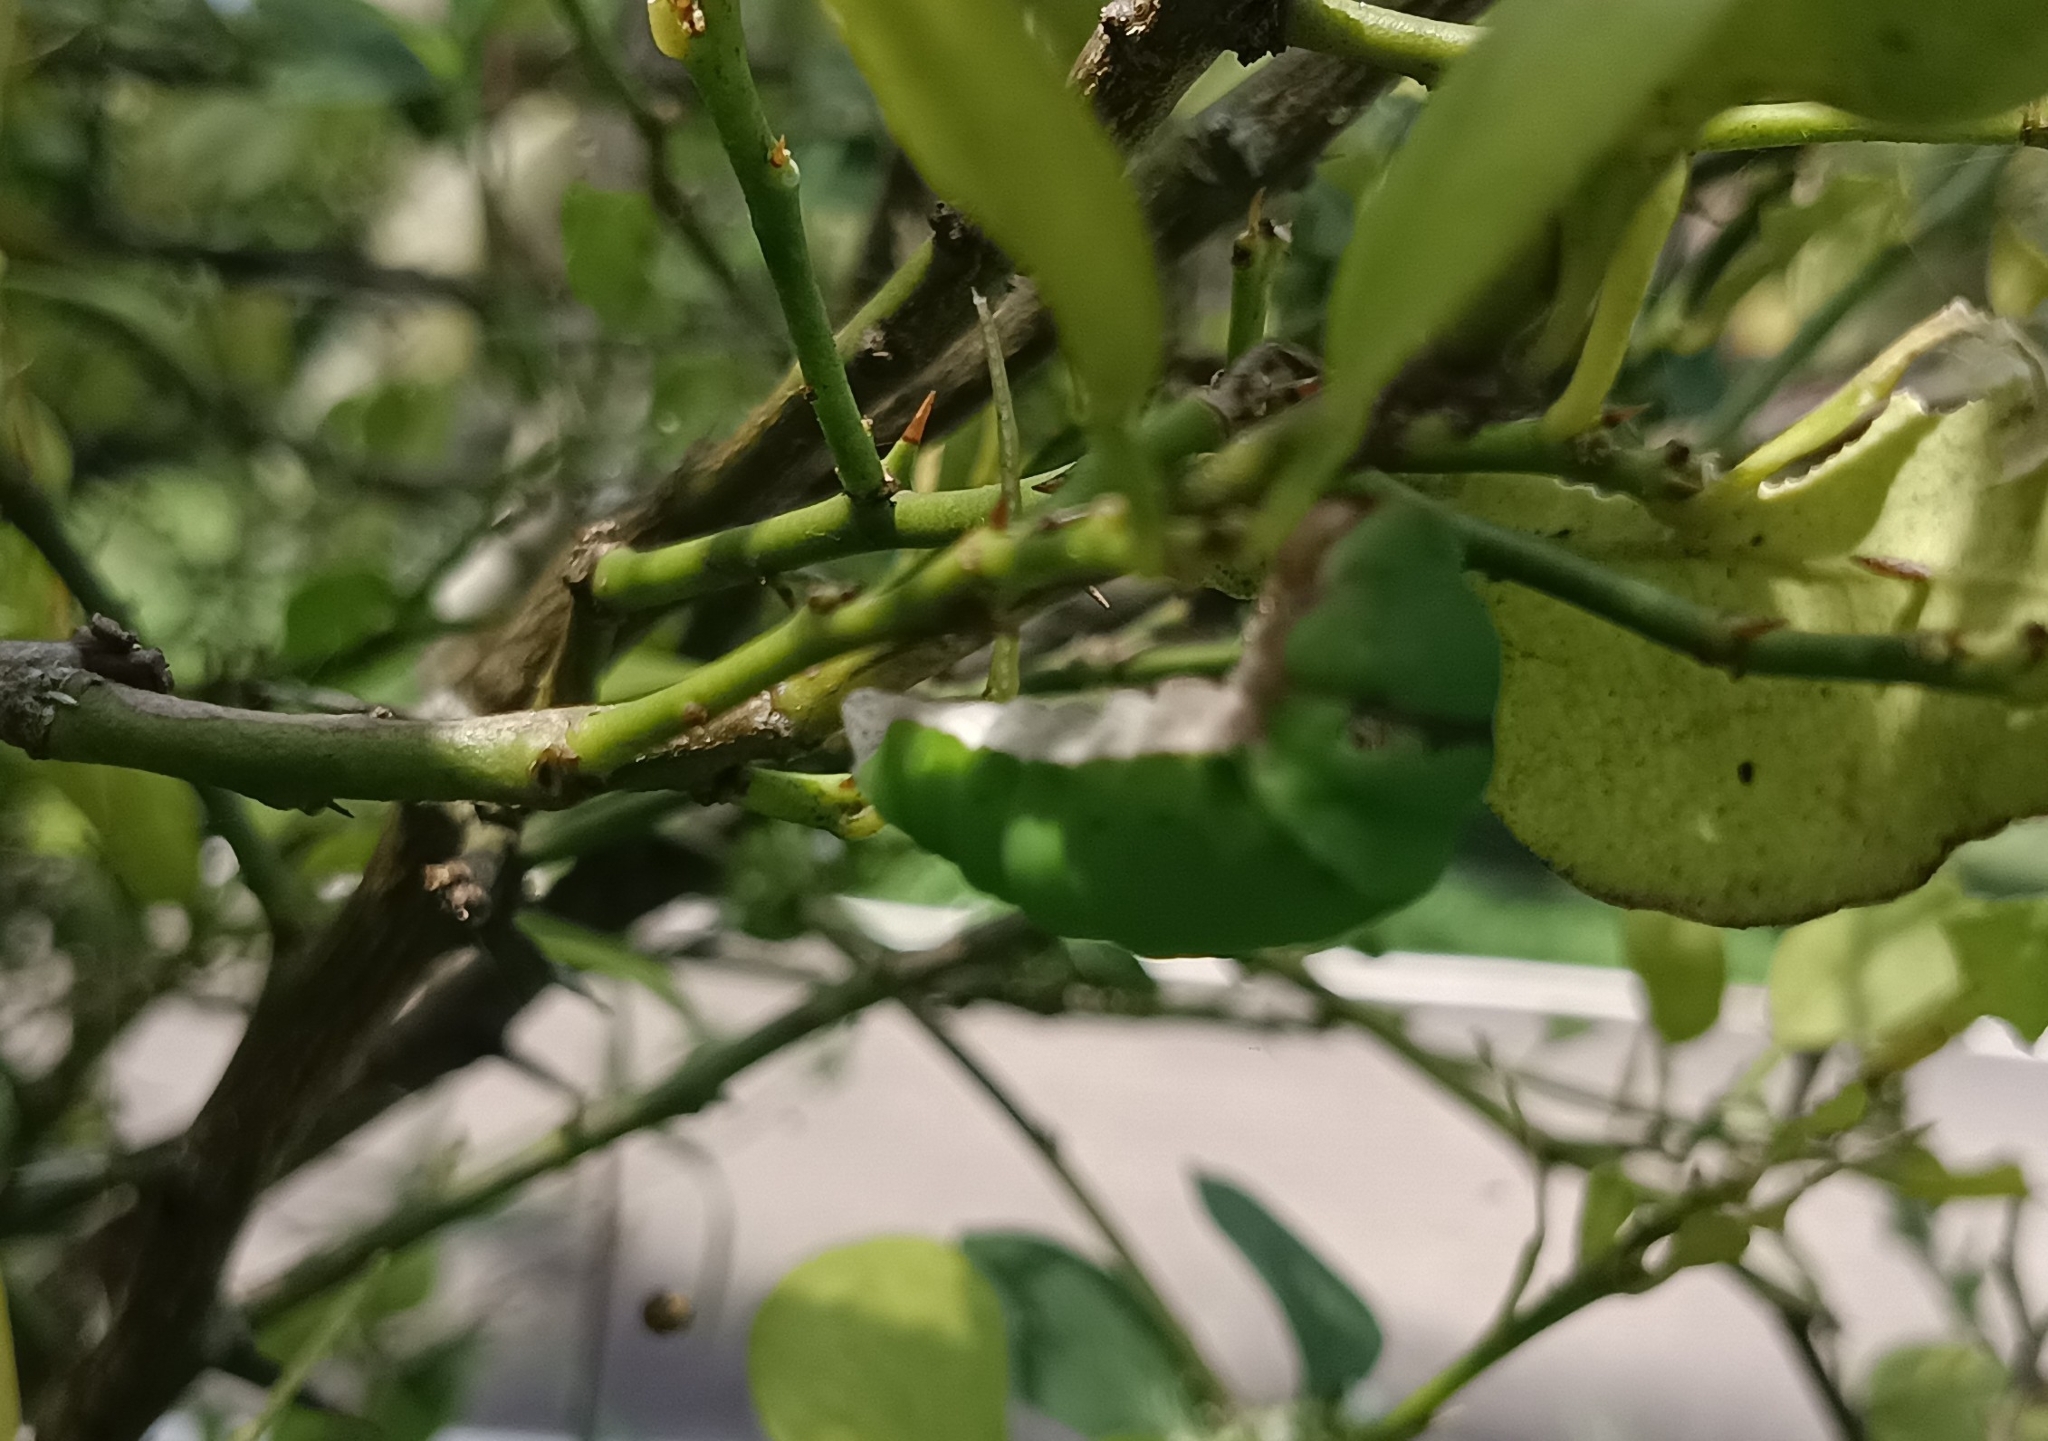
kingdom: Animalia
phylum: Arthropoda
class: Insecta
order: Lepidoptera
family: Papilionidae
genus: Papilio
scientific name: Papilio demoleus
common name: Lime butterfly
